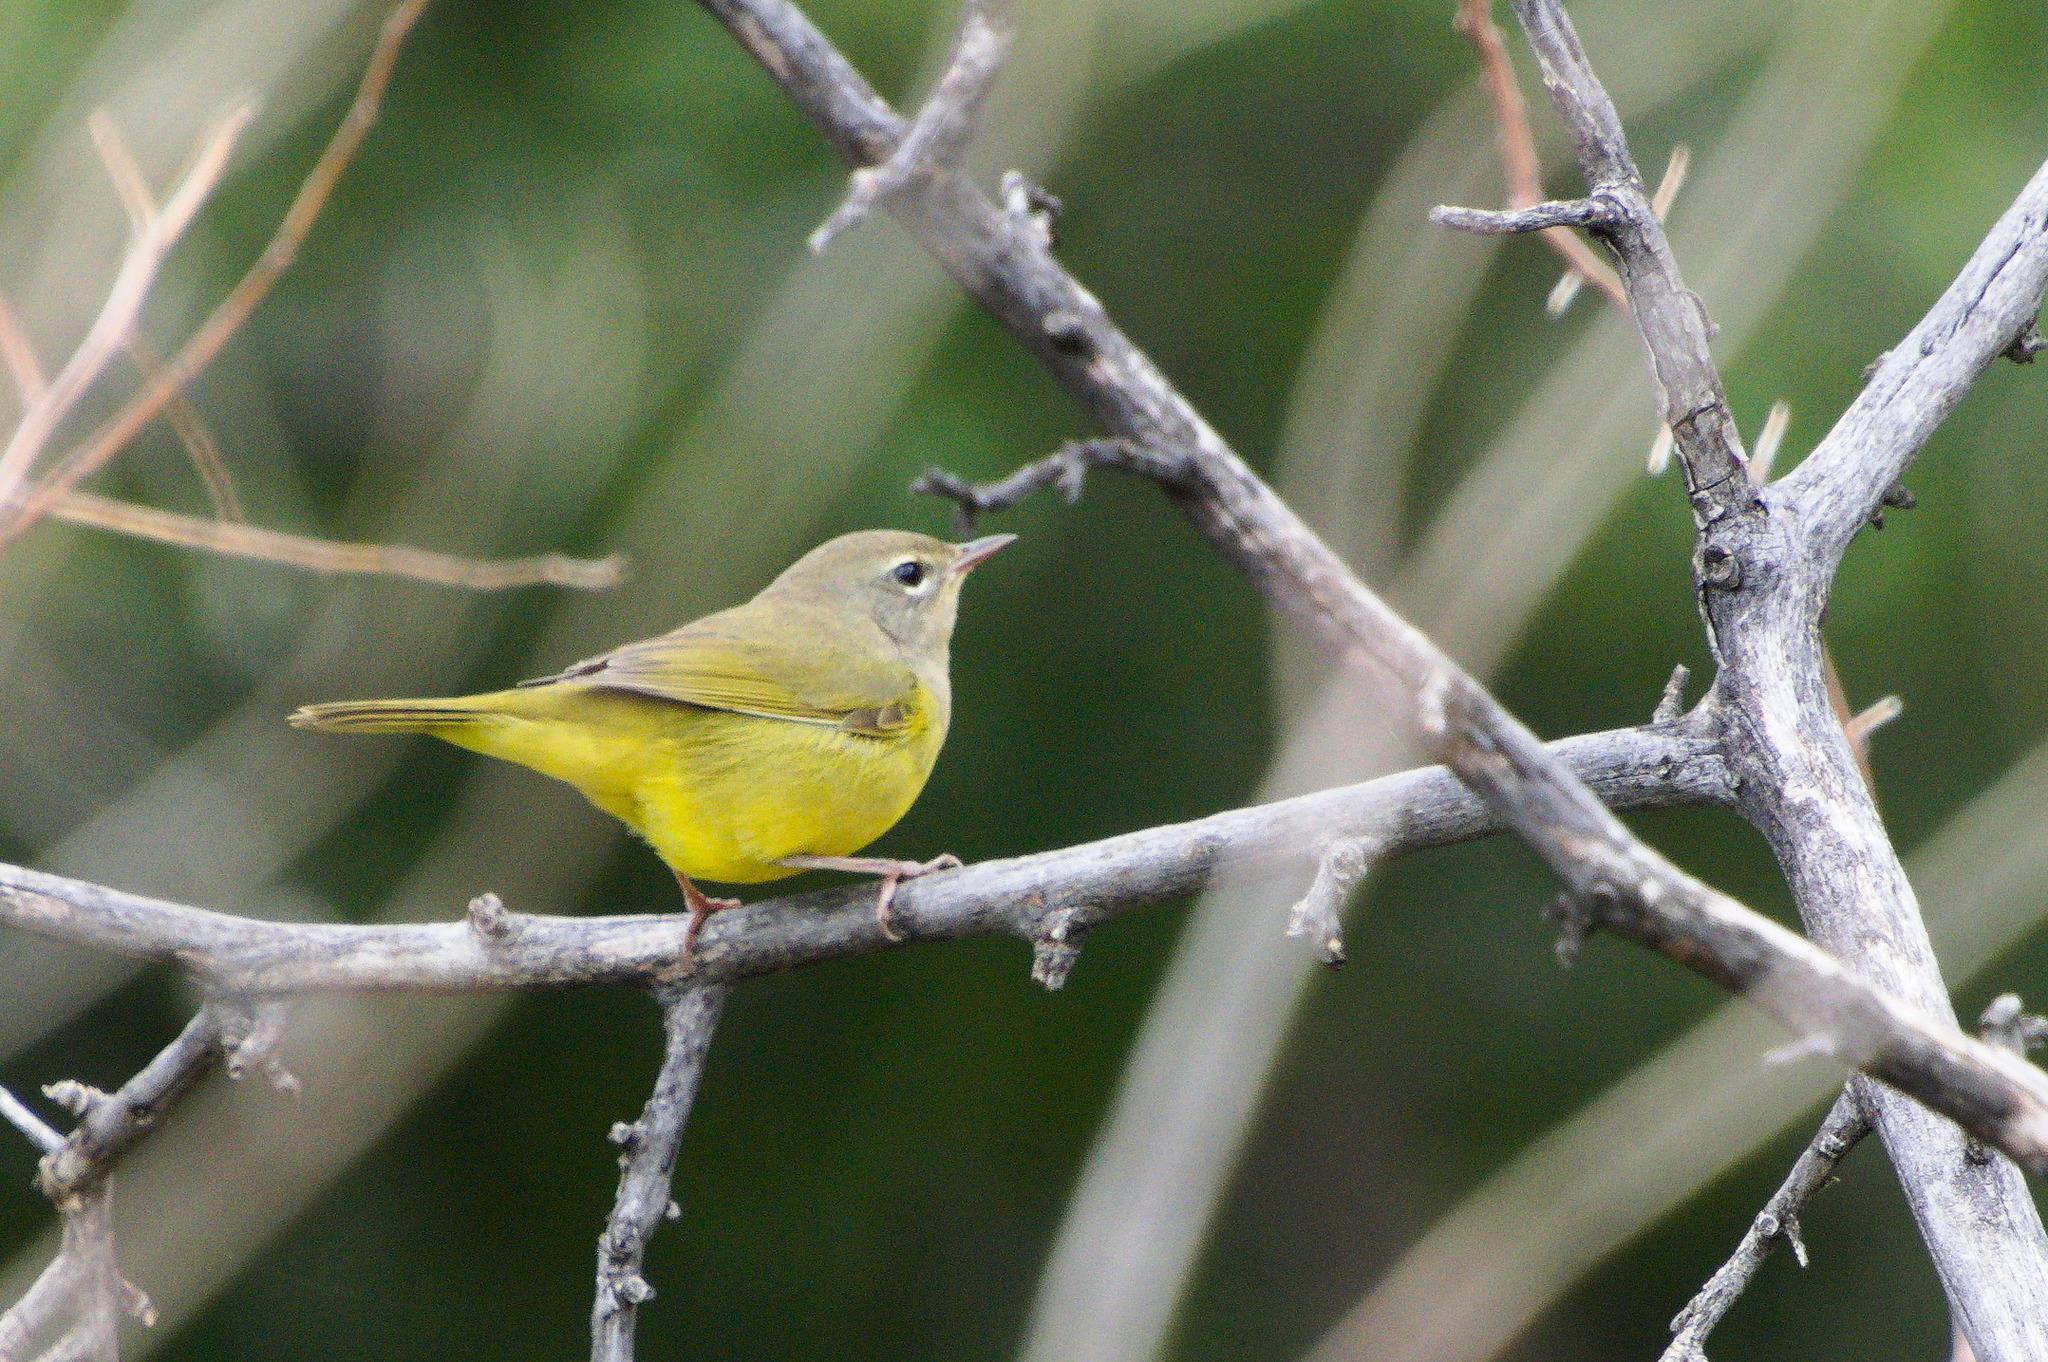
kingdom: Animalia
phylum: Chordata
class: Aves
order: Passeriformes
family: Parulidae
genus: Geothlypis
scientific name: Geothlypis tolmiei
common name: Macgillivray's warbler
